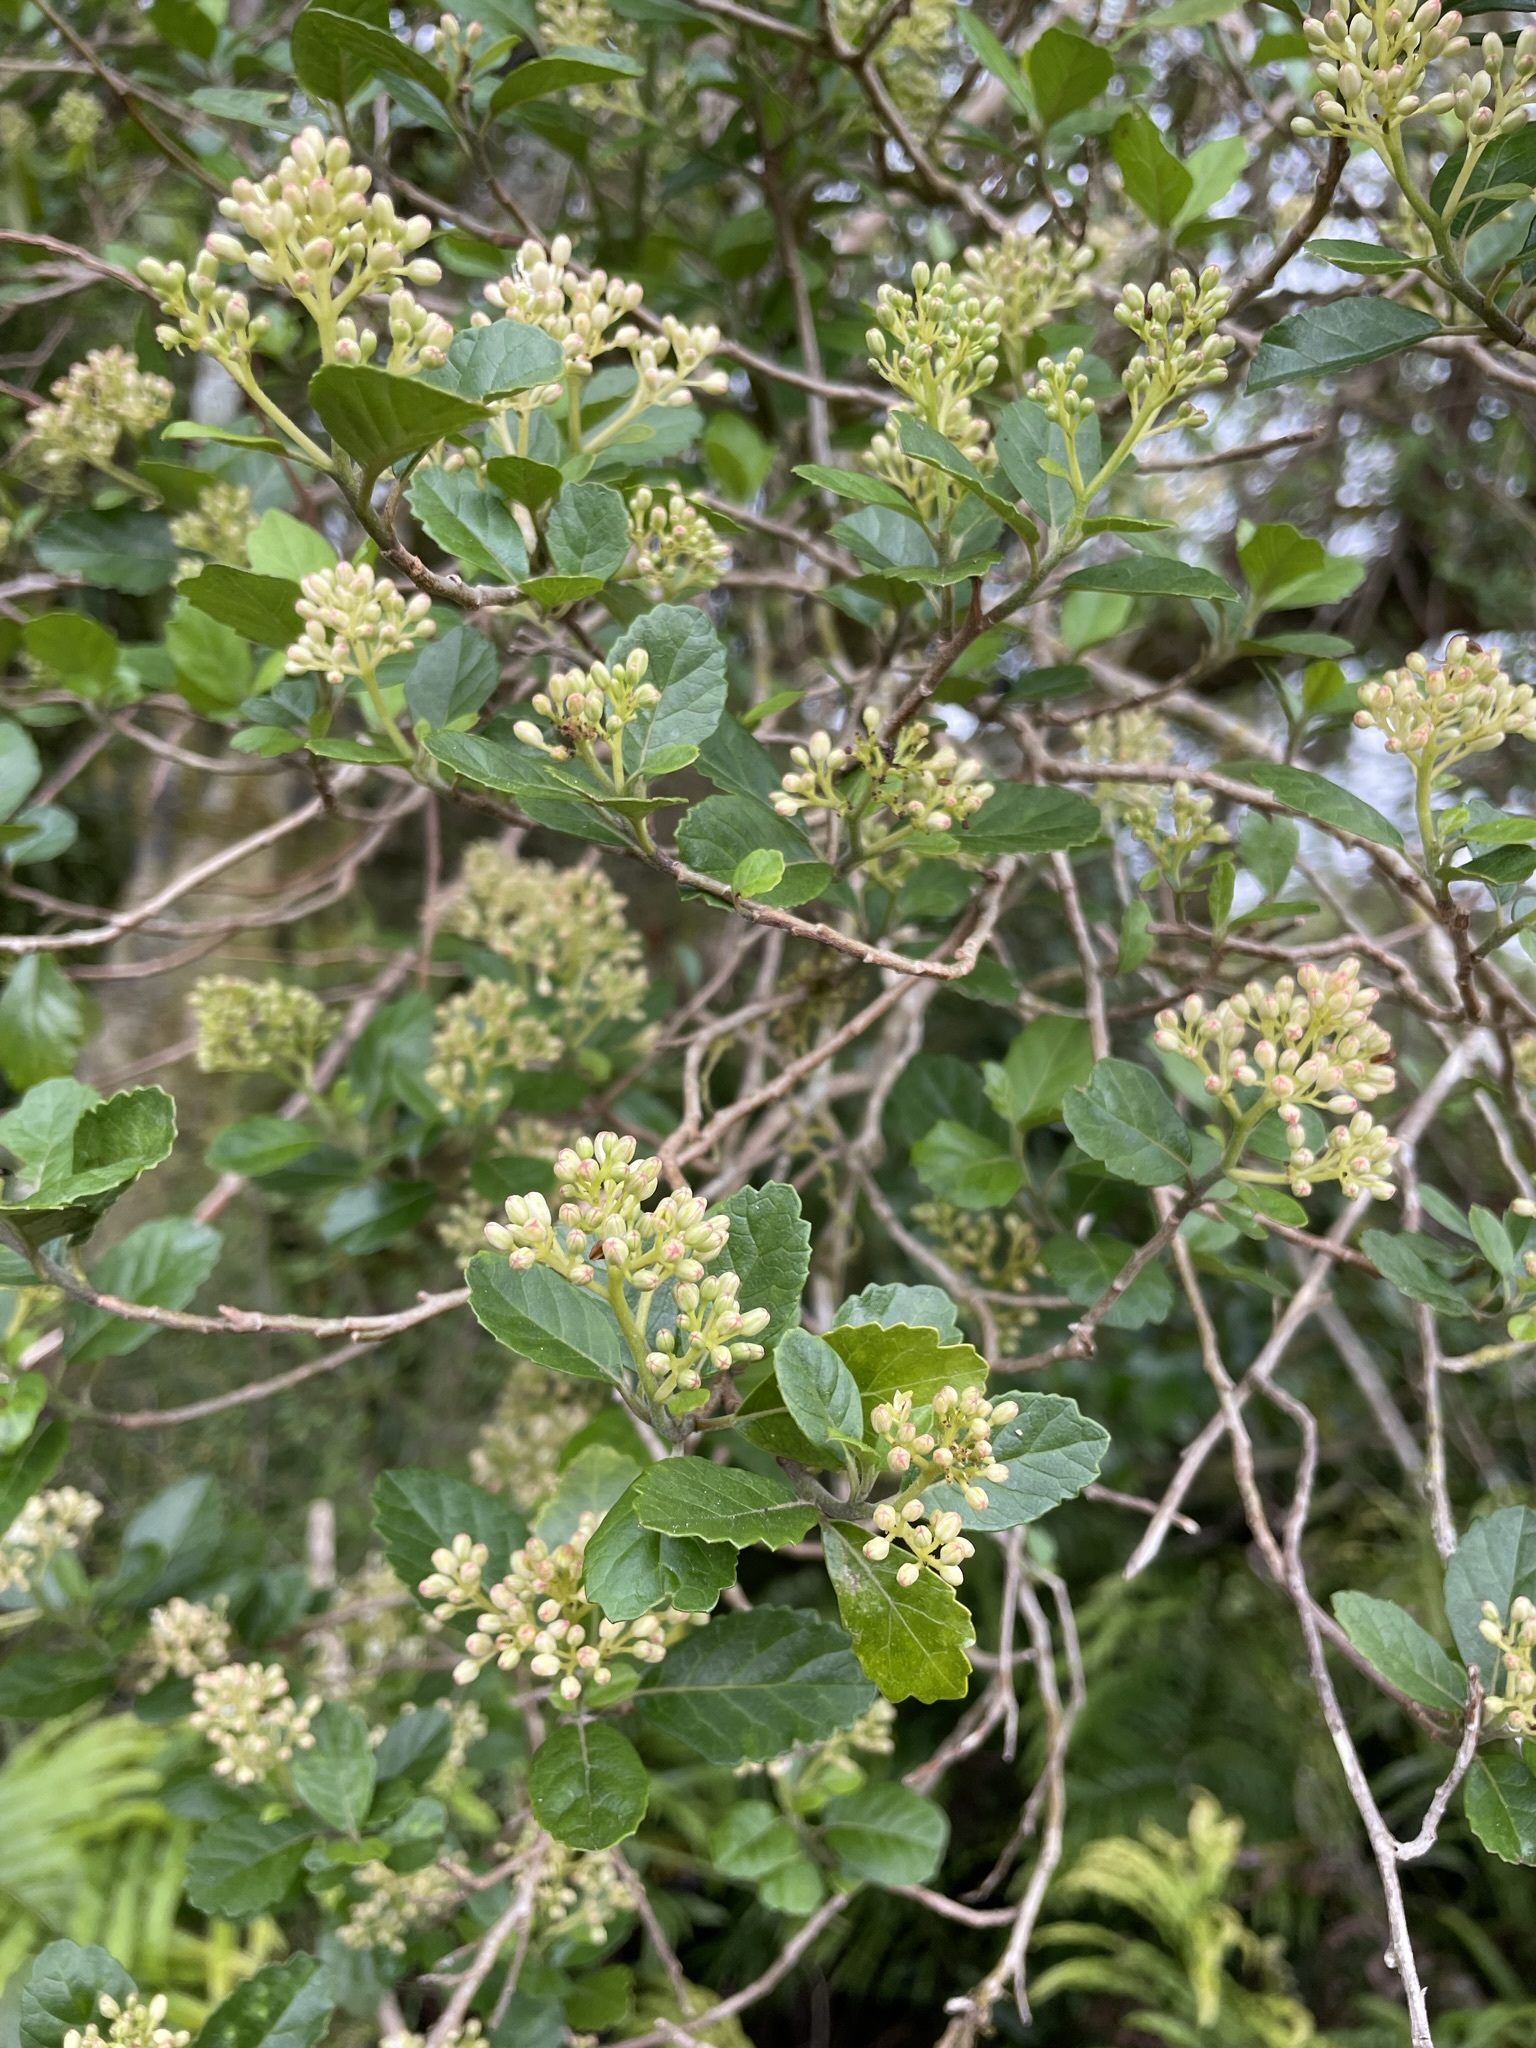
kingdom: Plantae
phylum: Tracheophyta
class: Magnoliopsida
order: Apiales
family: Pennantiaceae
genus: Pennantia
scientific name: Pennantia corymbosa
